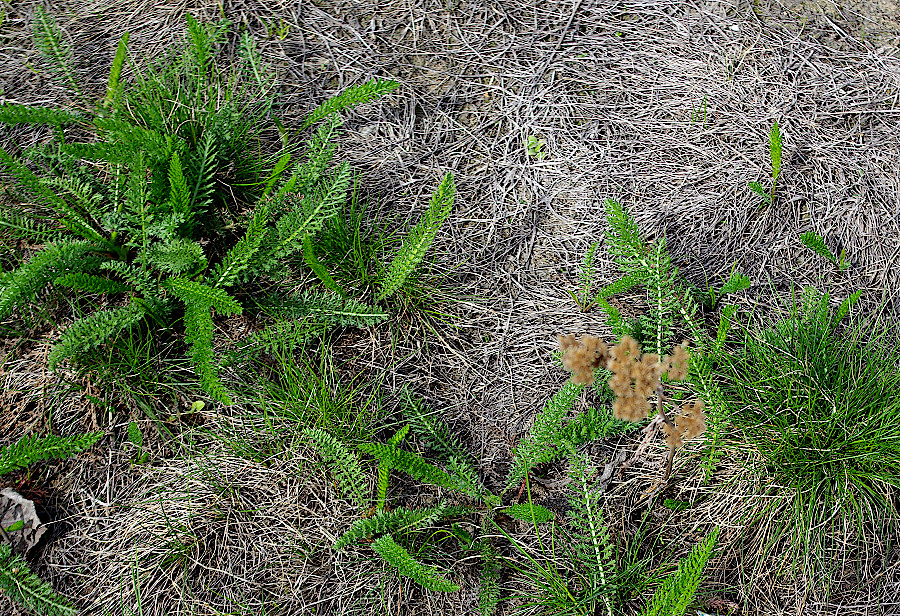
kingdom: Plantae
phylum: Tracheophyta
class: Magnoliopsida
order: Asterales
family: Asteraceae
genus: Achillea
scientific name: Achillea millefolium
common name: Yarrow
